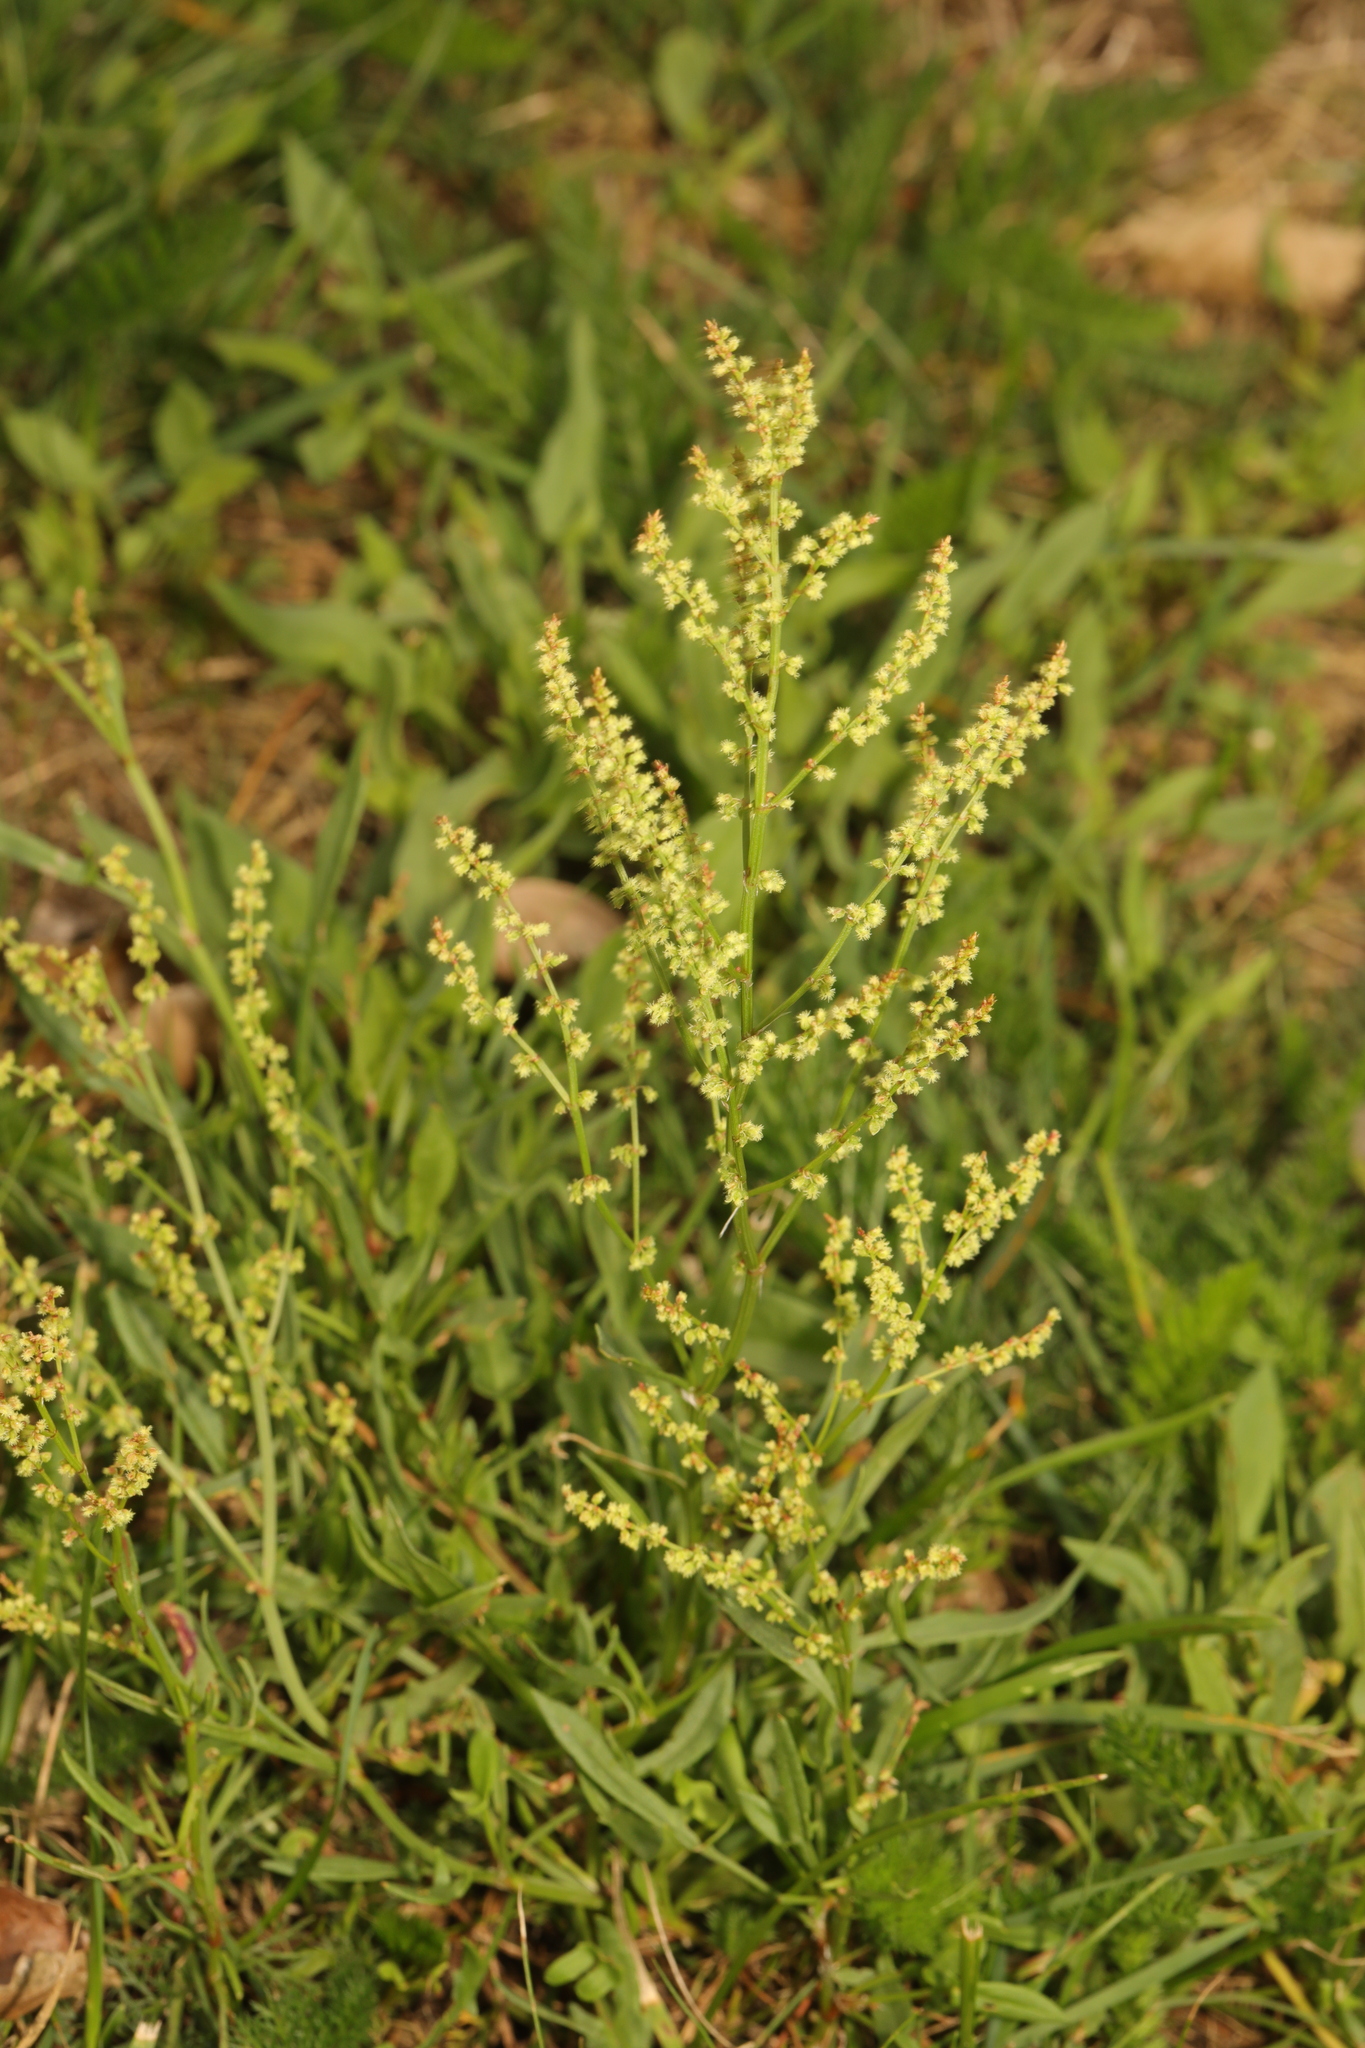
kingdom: Plantae
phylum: Tracheophyta
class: Magnoliopsida
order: Caryophyllales
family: Polygonaceae
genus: Rumex
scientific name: Rumex acetosella
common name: Common sheep sorrel
